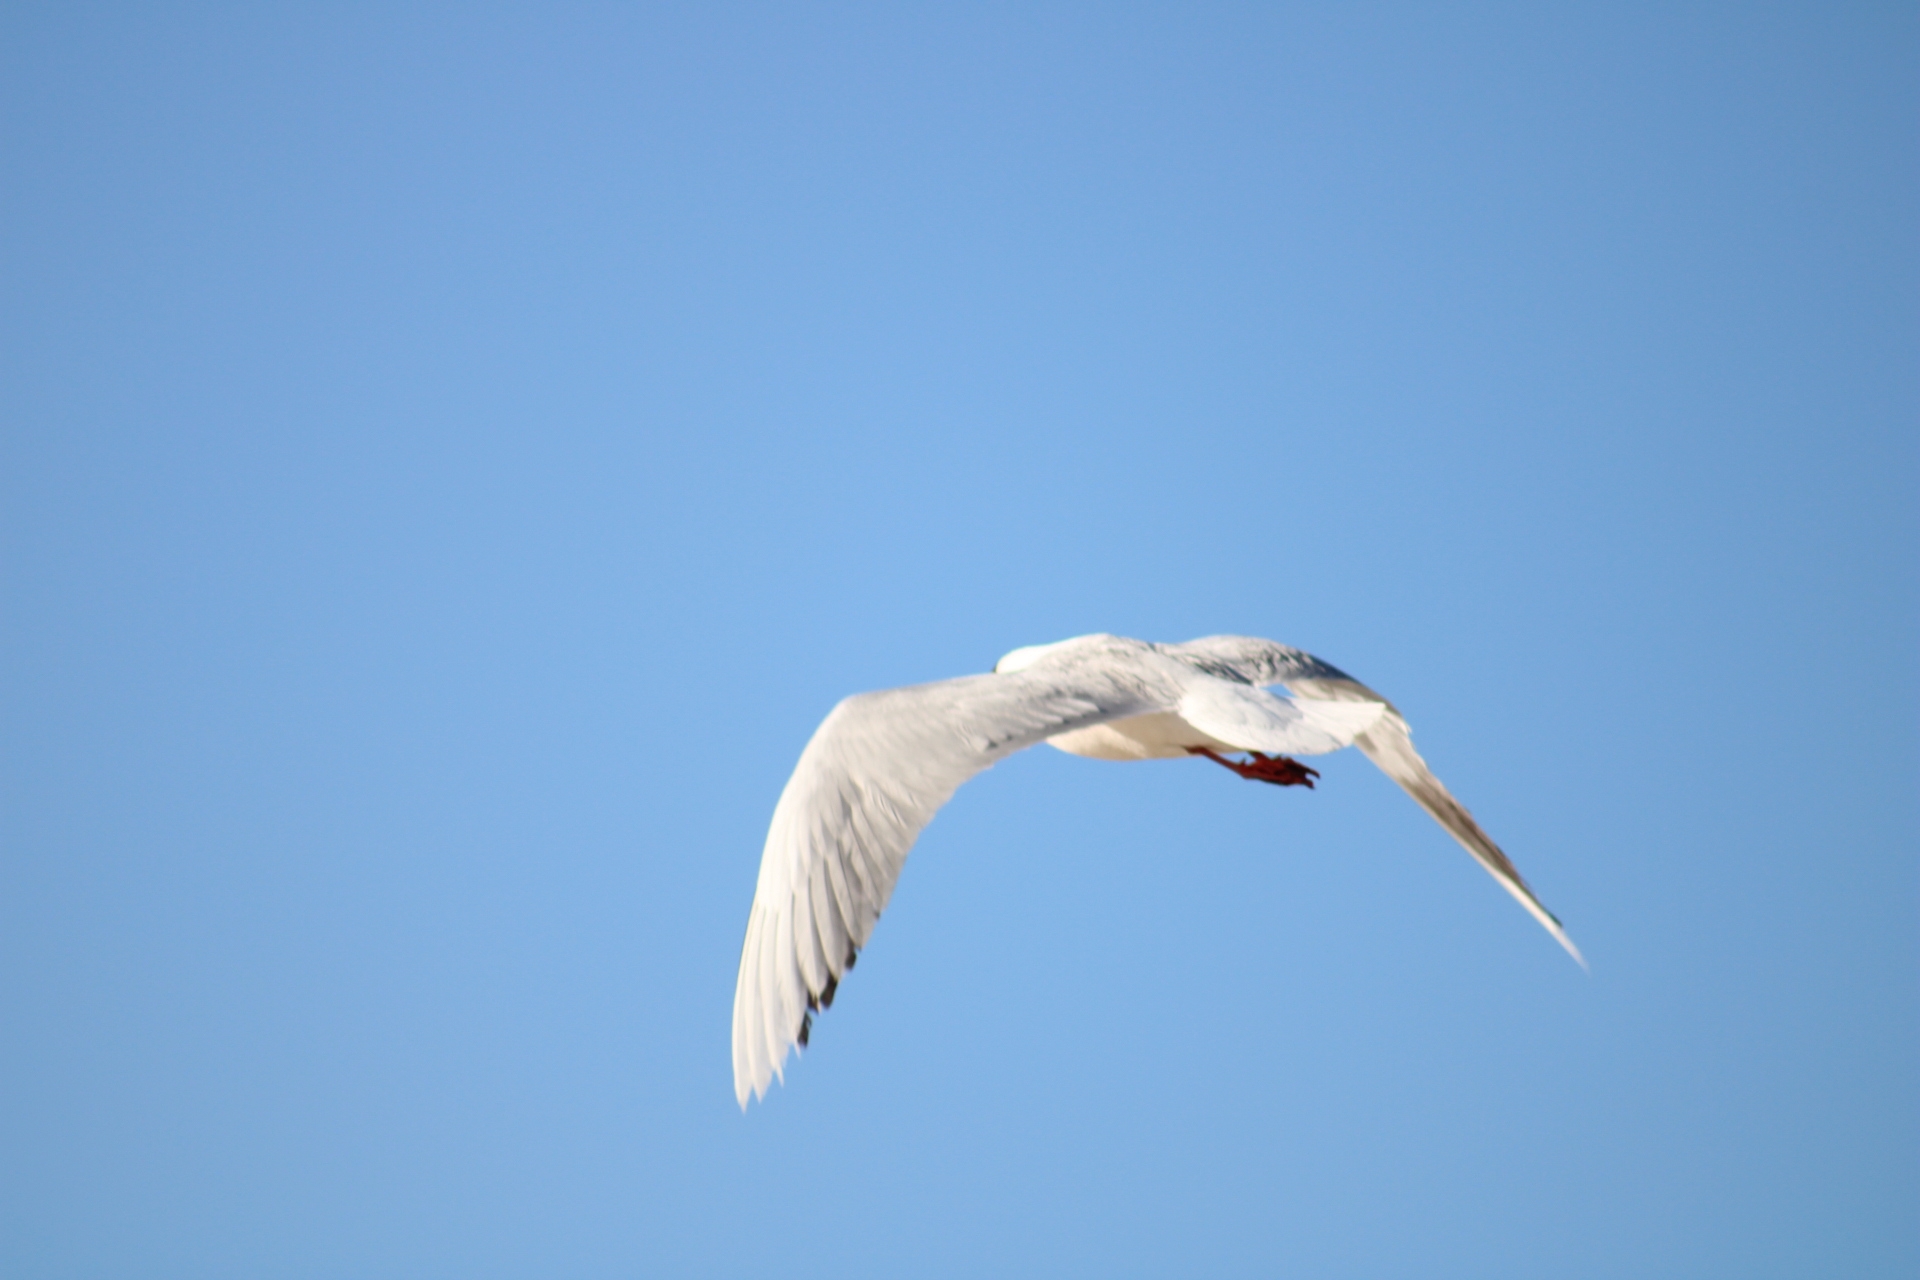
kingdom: Animalia
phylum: Chordata
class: Aves
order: Charadriiformes
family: Laridae
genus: Chroicocephalus
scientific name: Chroicocephalus maculipennis
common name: Brown-hooded gull
